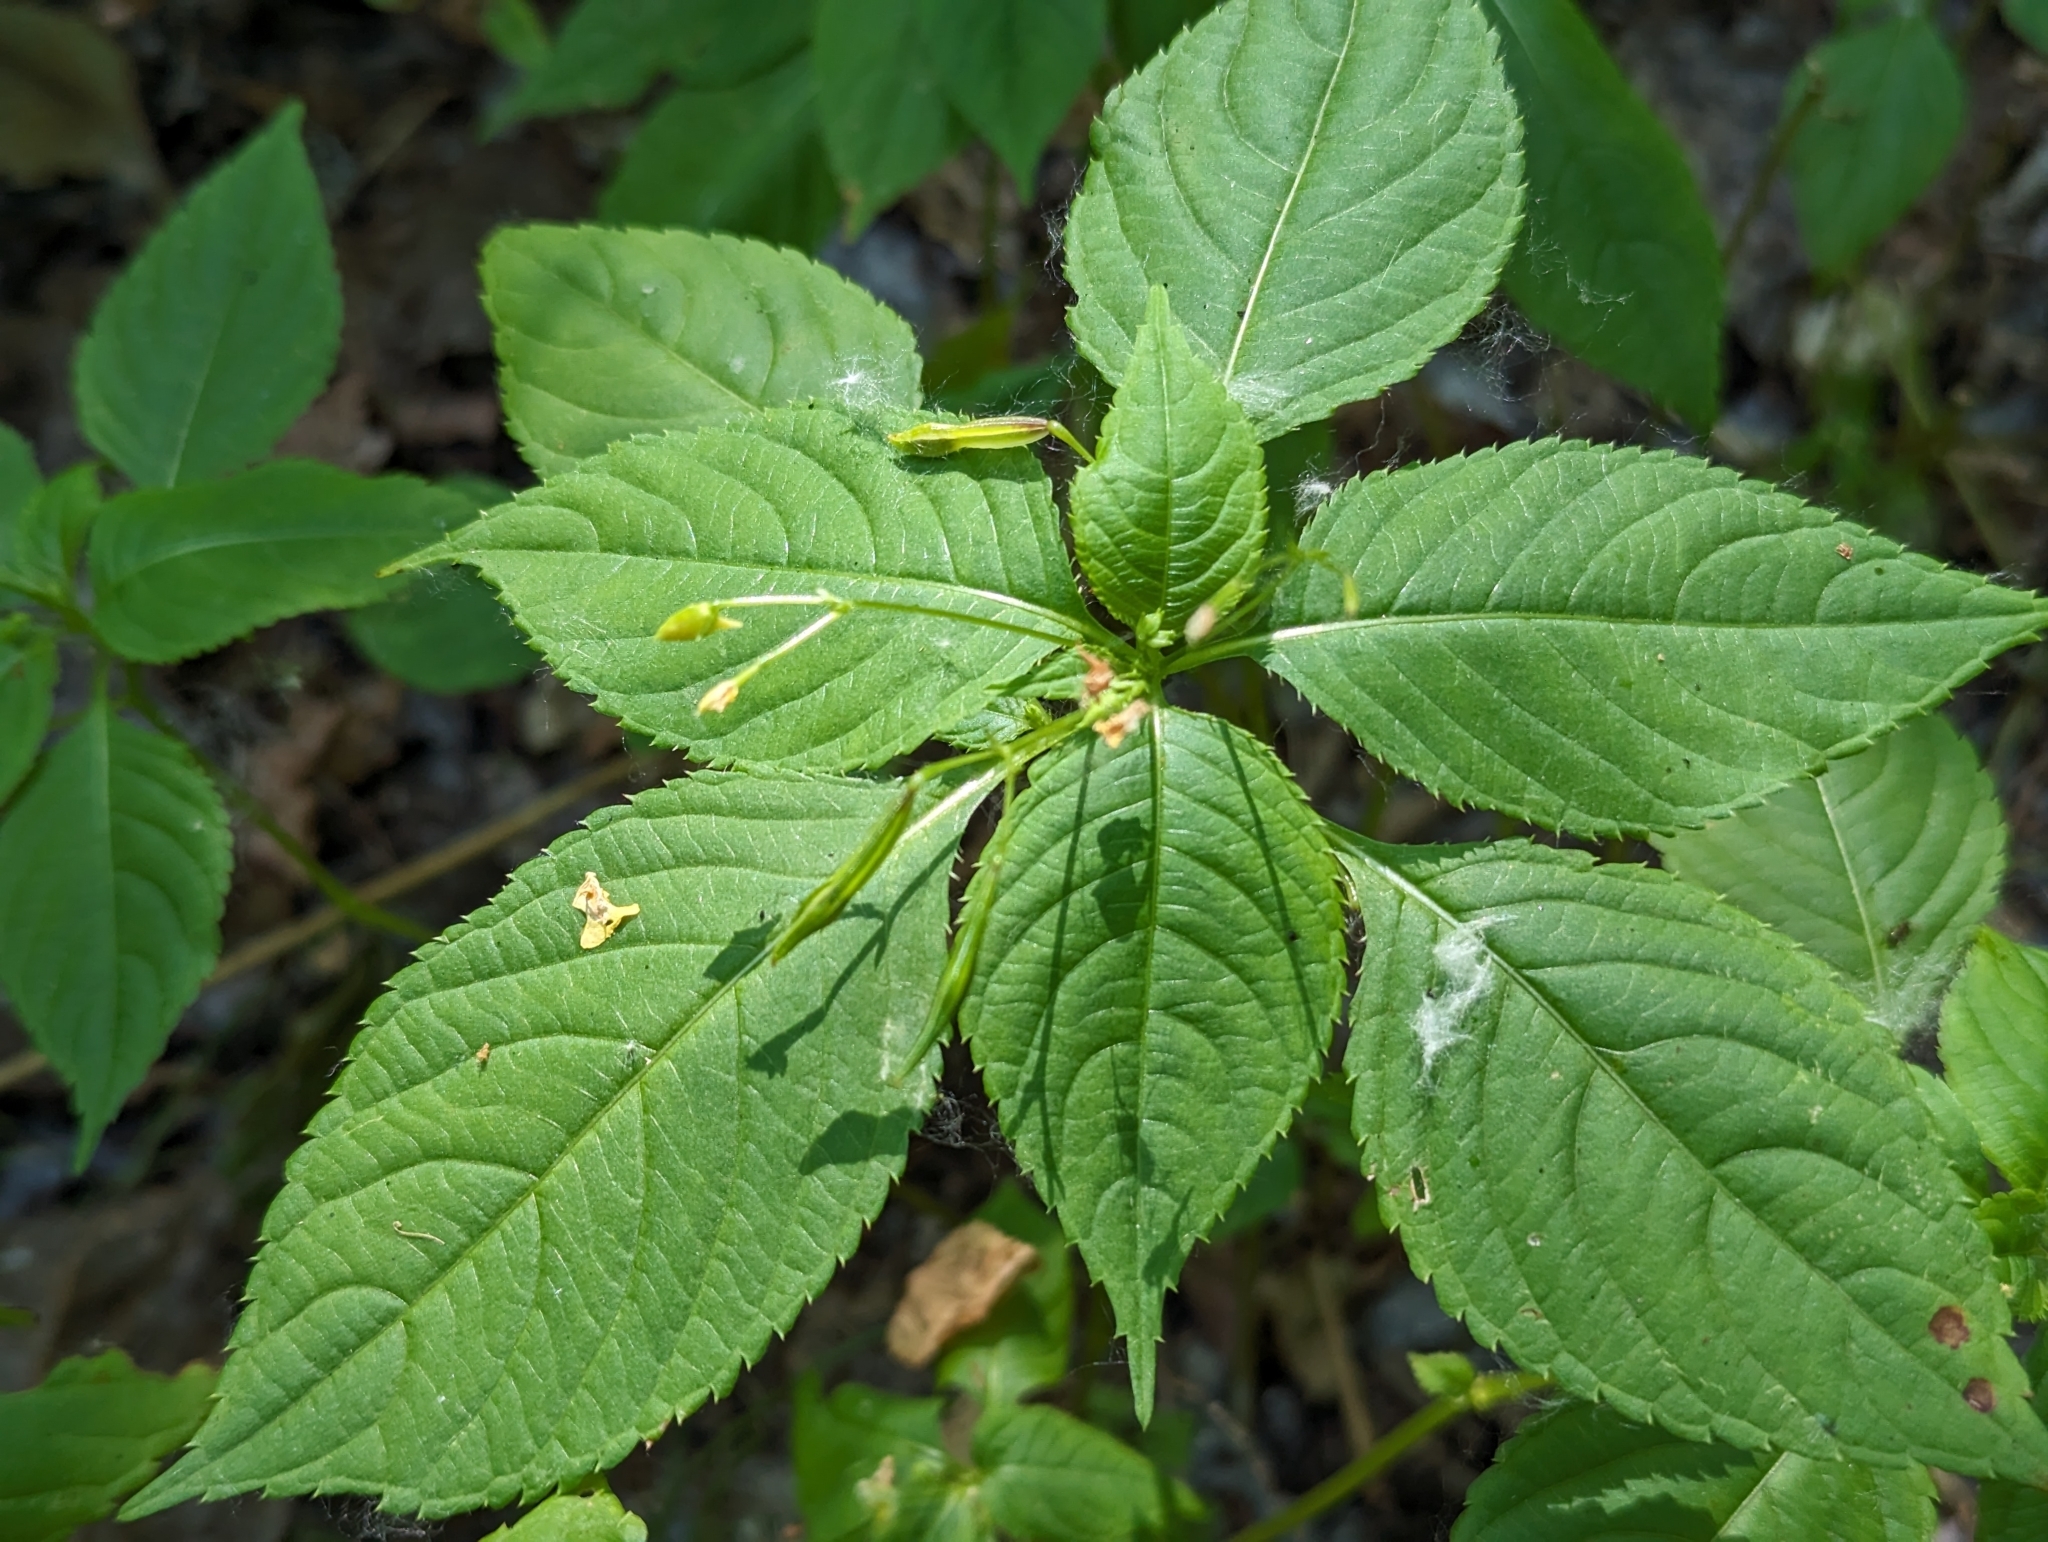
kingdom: Plantae
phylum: Tracheophyta
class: Magnoliopsida
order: Ericales
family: Balsaminaceae
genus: Impatiens
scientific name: Impatiens parviflora
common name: Small balsam
